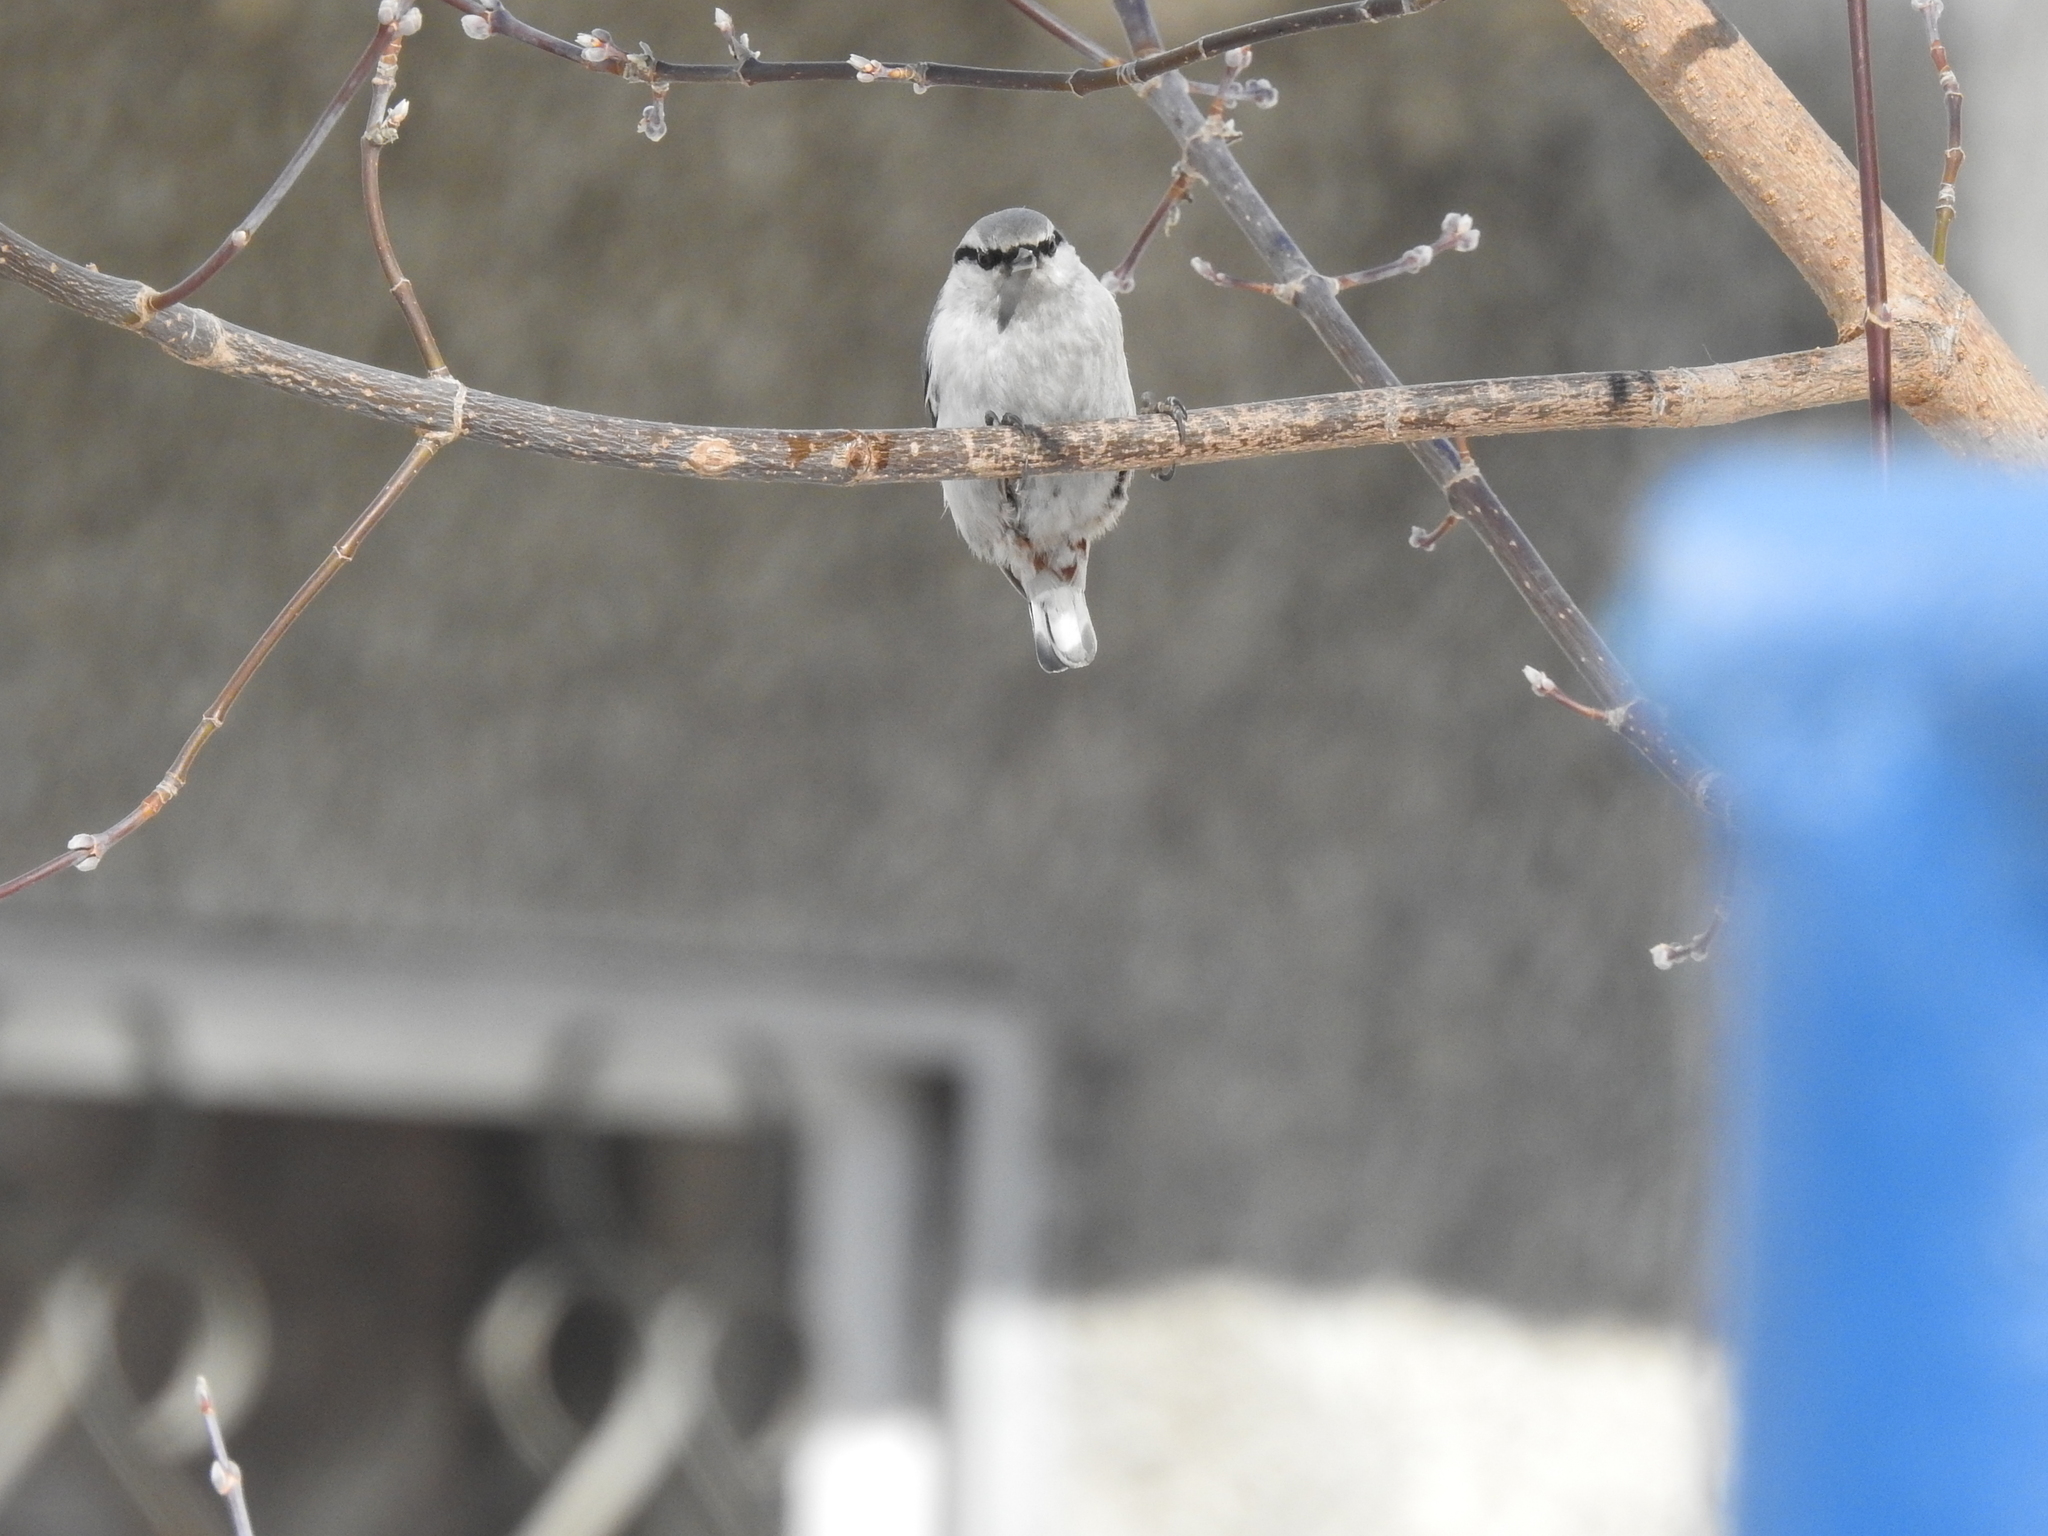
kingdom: Animalia
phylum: Chordata
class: Aves
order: Passeriformes
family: Sittidae
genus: Sitta
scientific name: Sitta europaea
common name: Eurasian nuthatch
